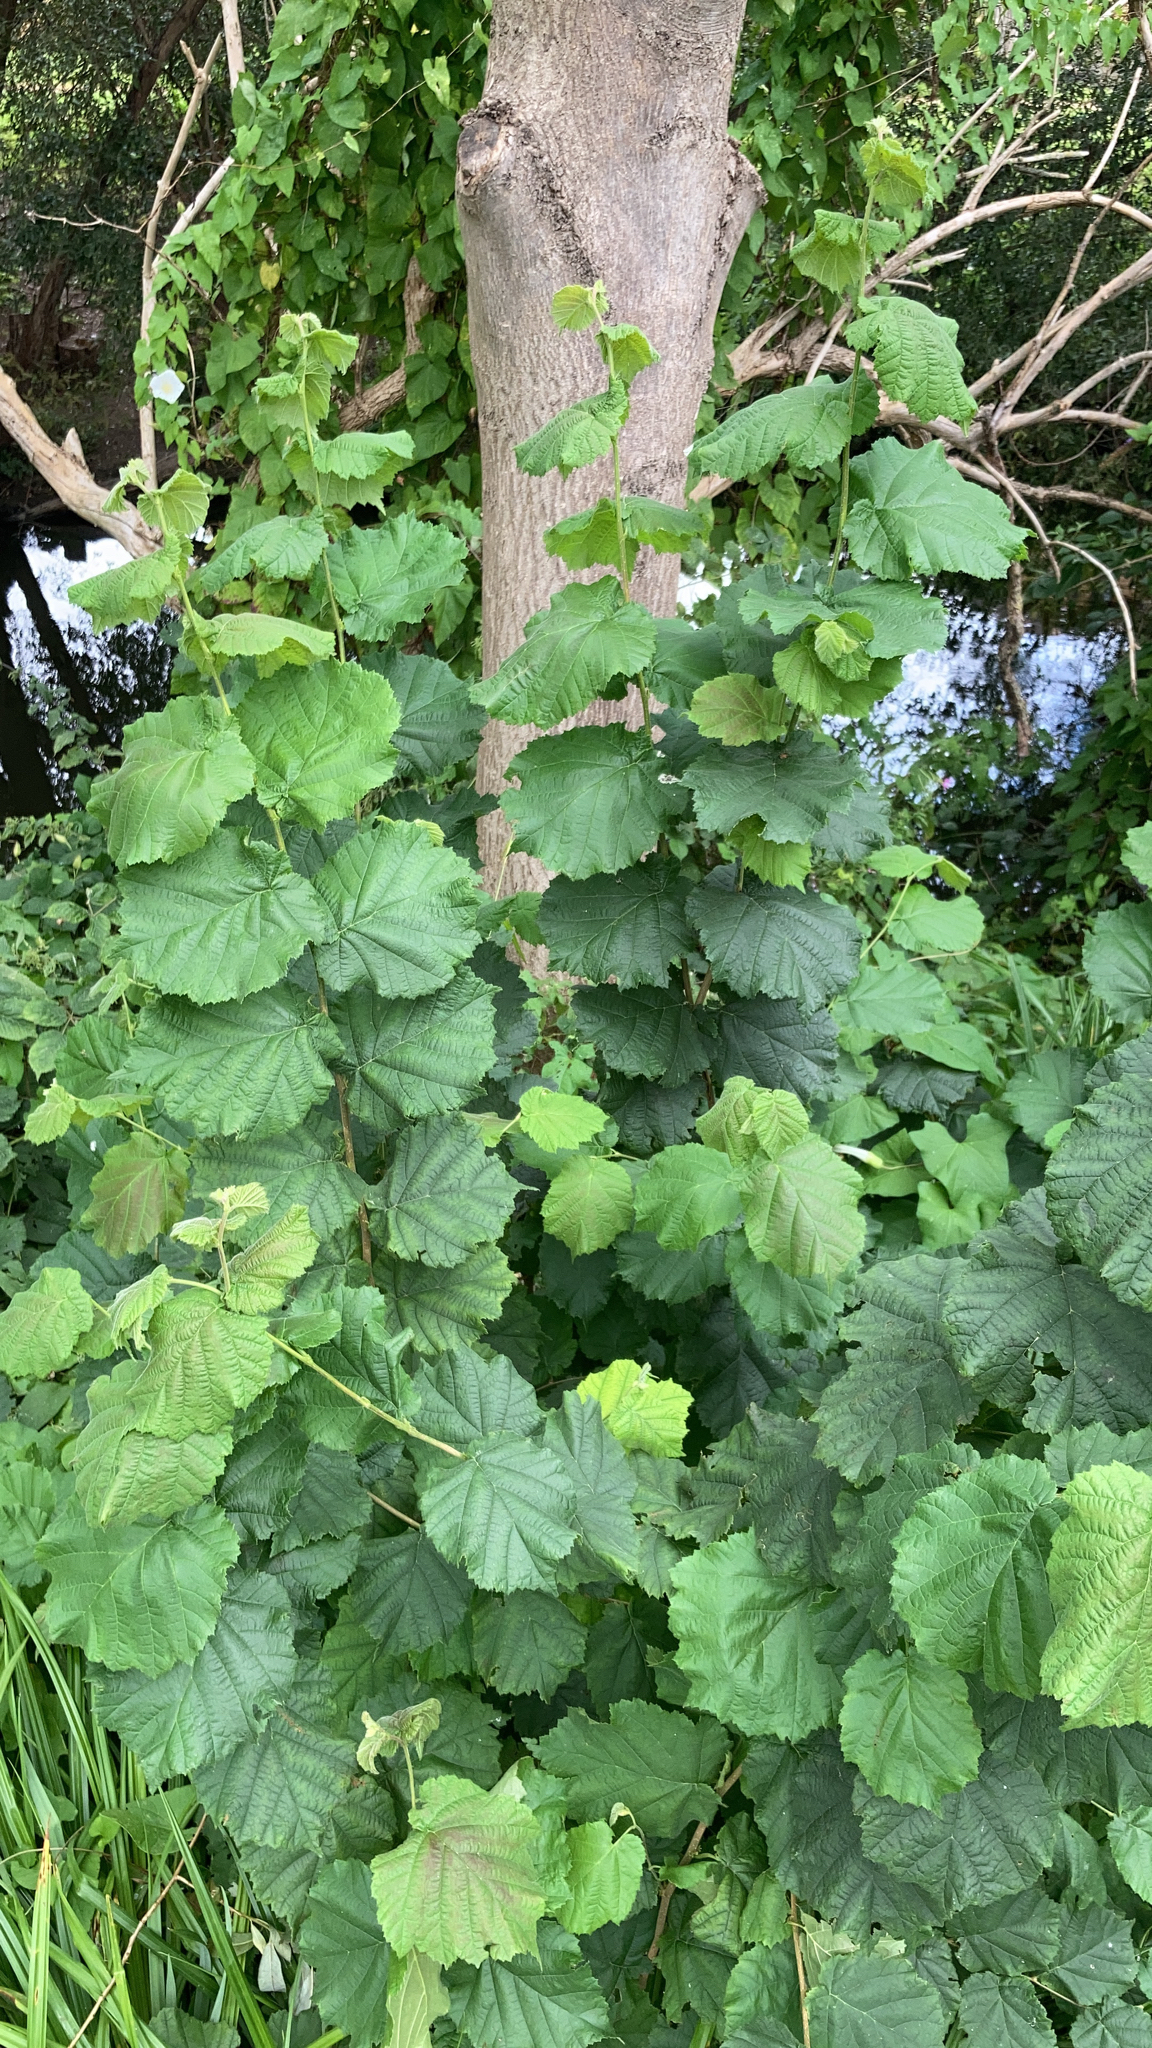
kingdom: Plantae
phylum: Tracheophyta
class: Magnoliopsida
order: Fagales
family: Betulaceae
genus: Corylus
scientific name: Corylus avellana
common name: European hazel
